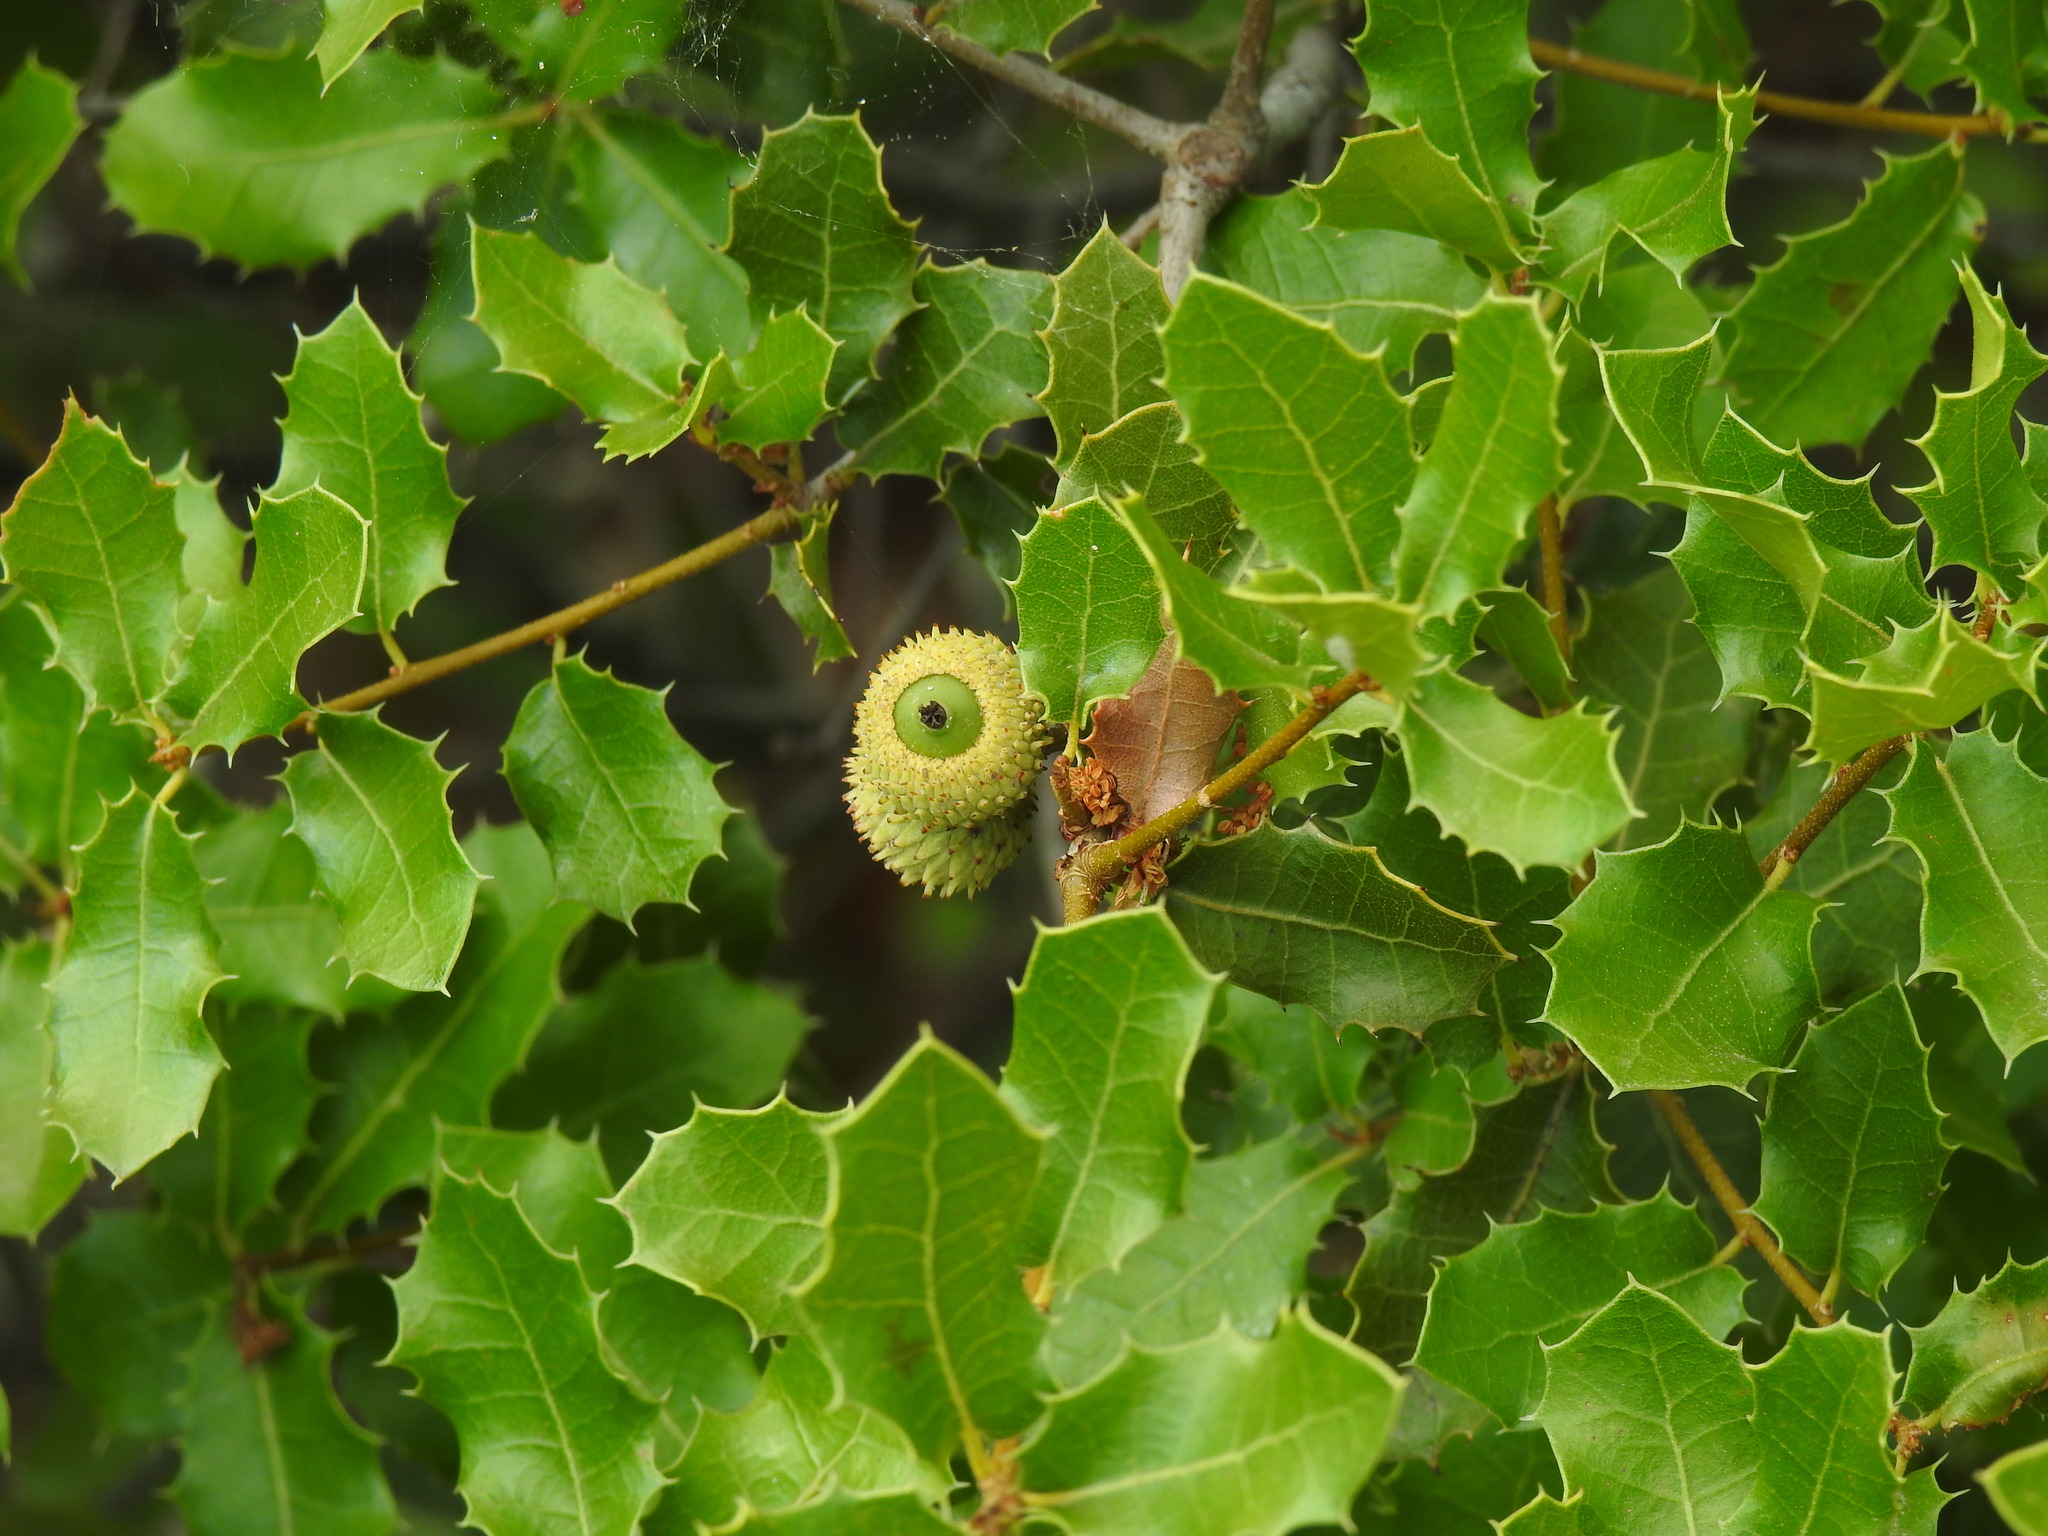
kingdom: Plantae
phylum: Tracheophyta
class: Magnoliopsida
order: Fagales
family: Fagaceae
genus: Quercus
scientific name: Quercus coccifera
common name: Kermes oak
